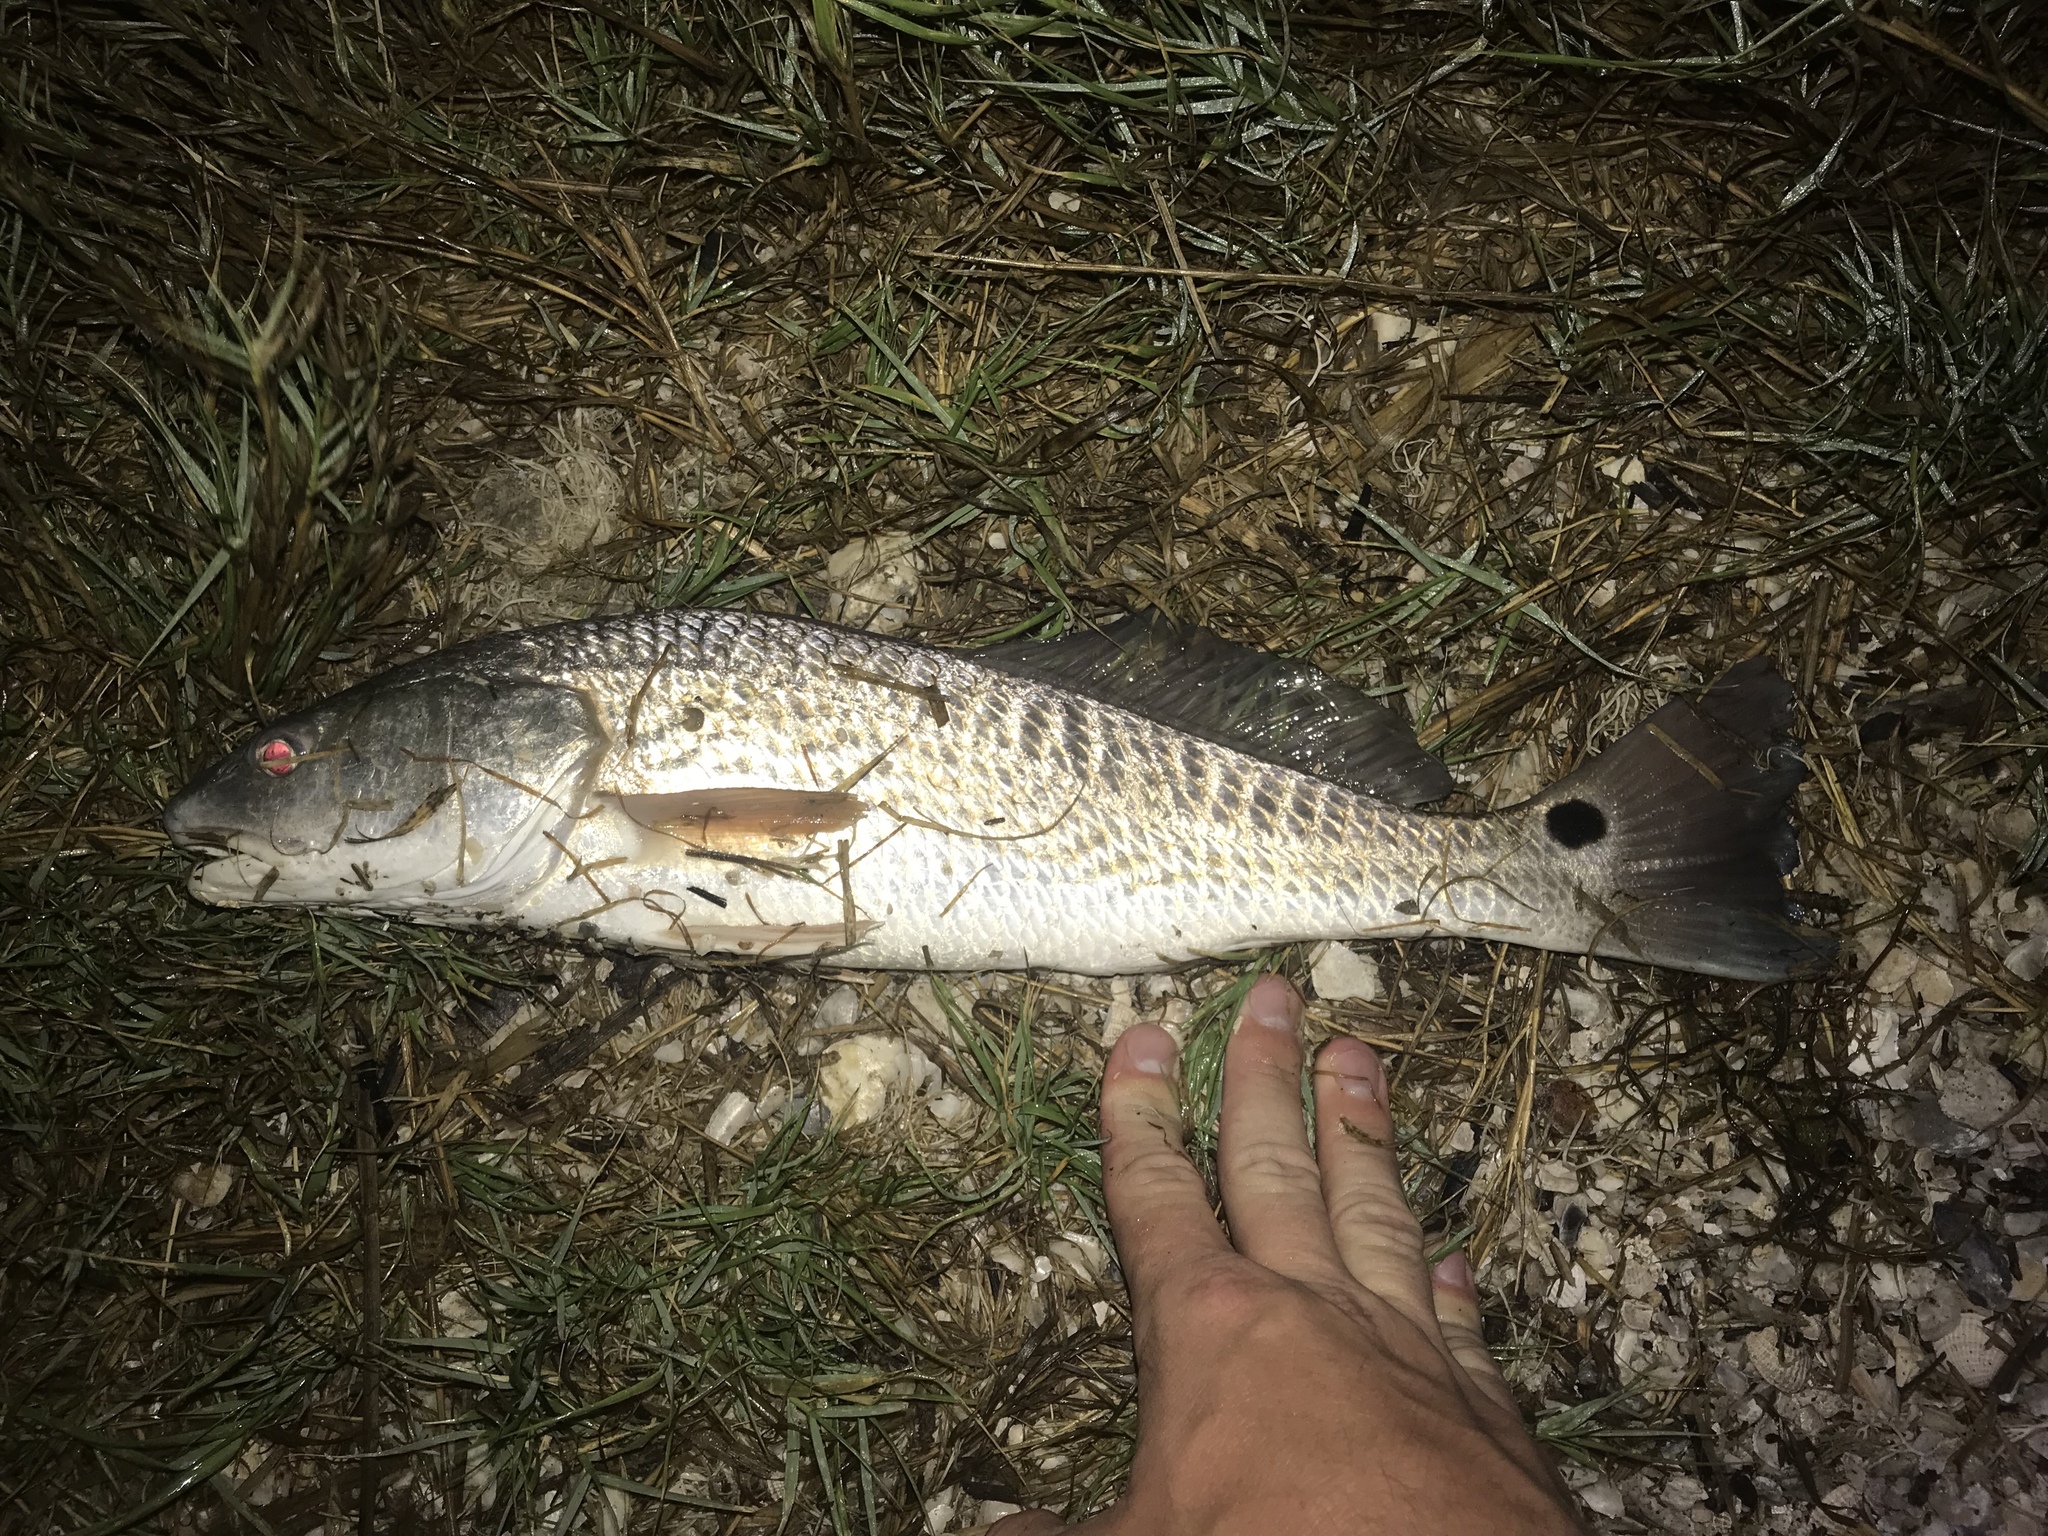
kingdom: Animalia
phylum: Chordata
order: Perciformes
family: Sciaenidae
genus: Sciaenops
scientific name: Sciaenops ocellatus
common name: Red drum
